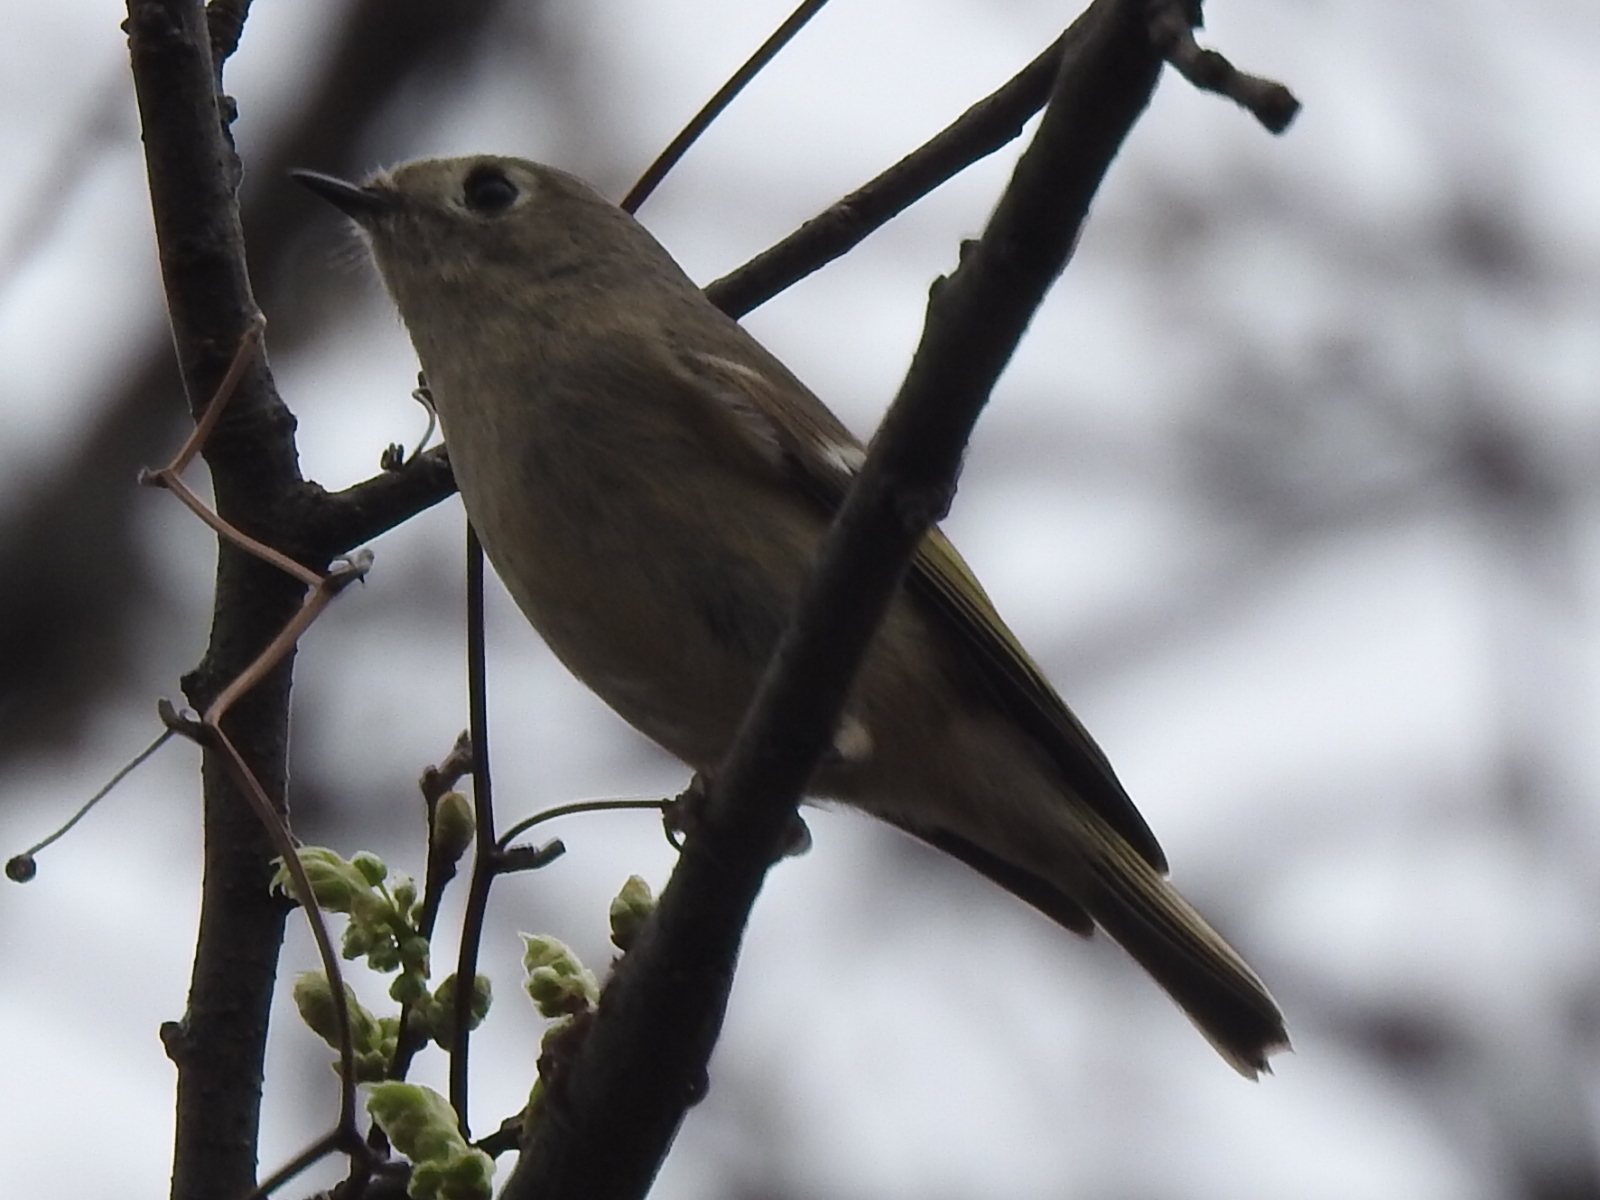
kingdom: Animalia
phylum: Chordata
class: Aves
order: Passeriformes
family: Regulidae
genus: Regulus
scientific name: Regulus calendula
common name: Ruby-crowned kinglet
